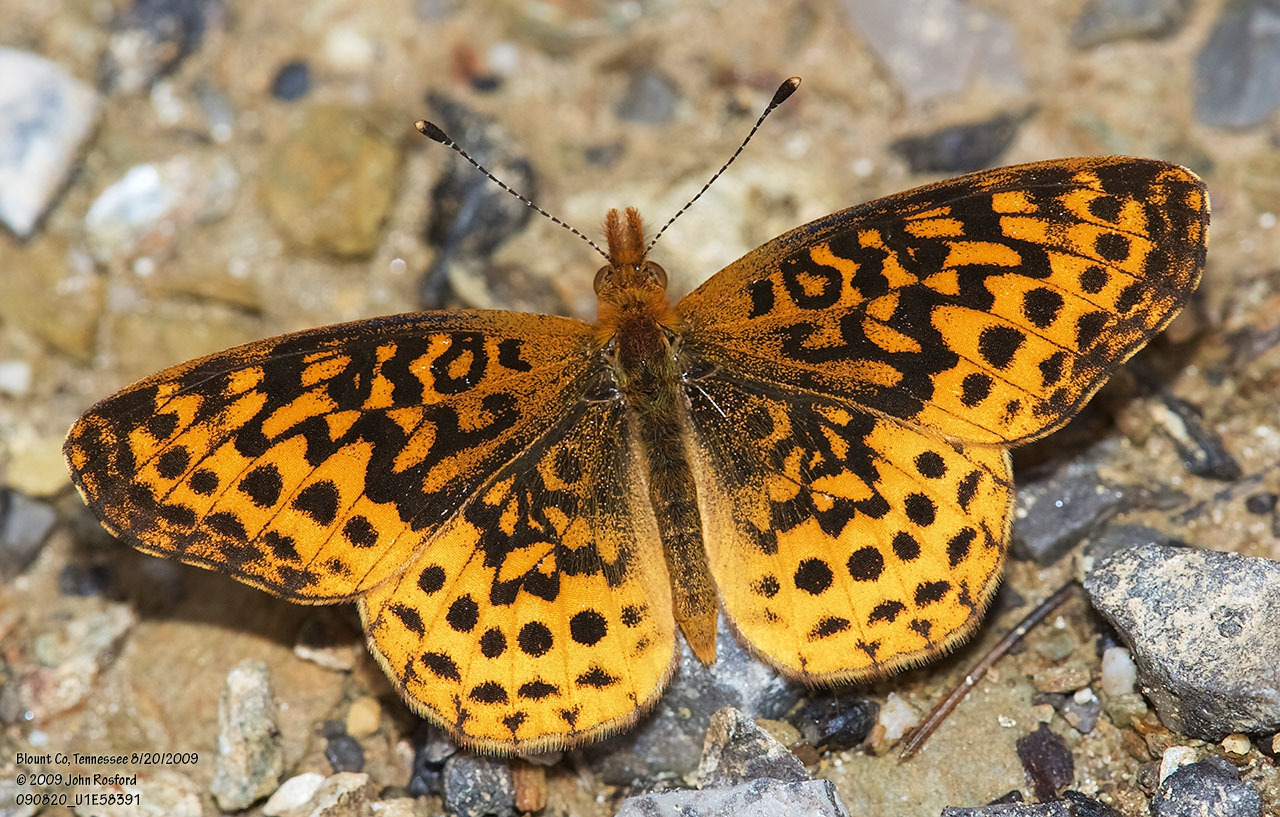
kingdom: Animalia
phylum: Arthropoda
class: Insecta
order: Lepidoptera
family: Nymphalidae
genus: Clossiana
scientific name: Clossiana toddi
